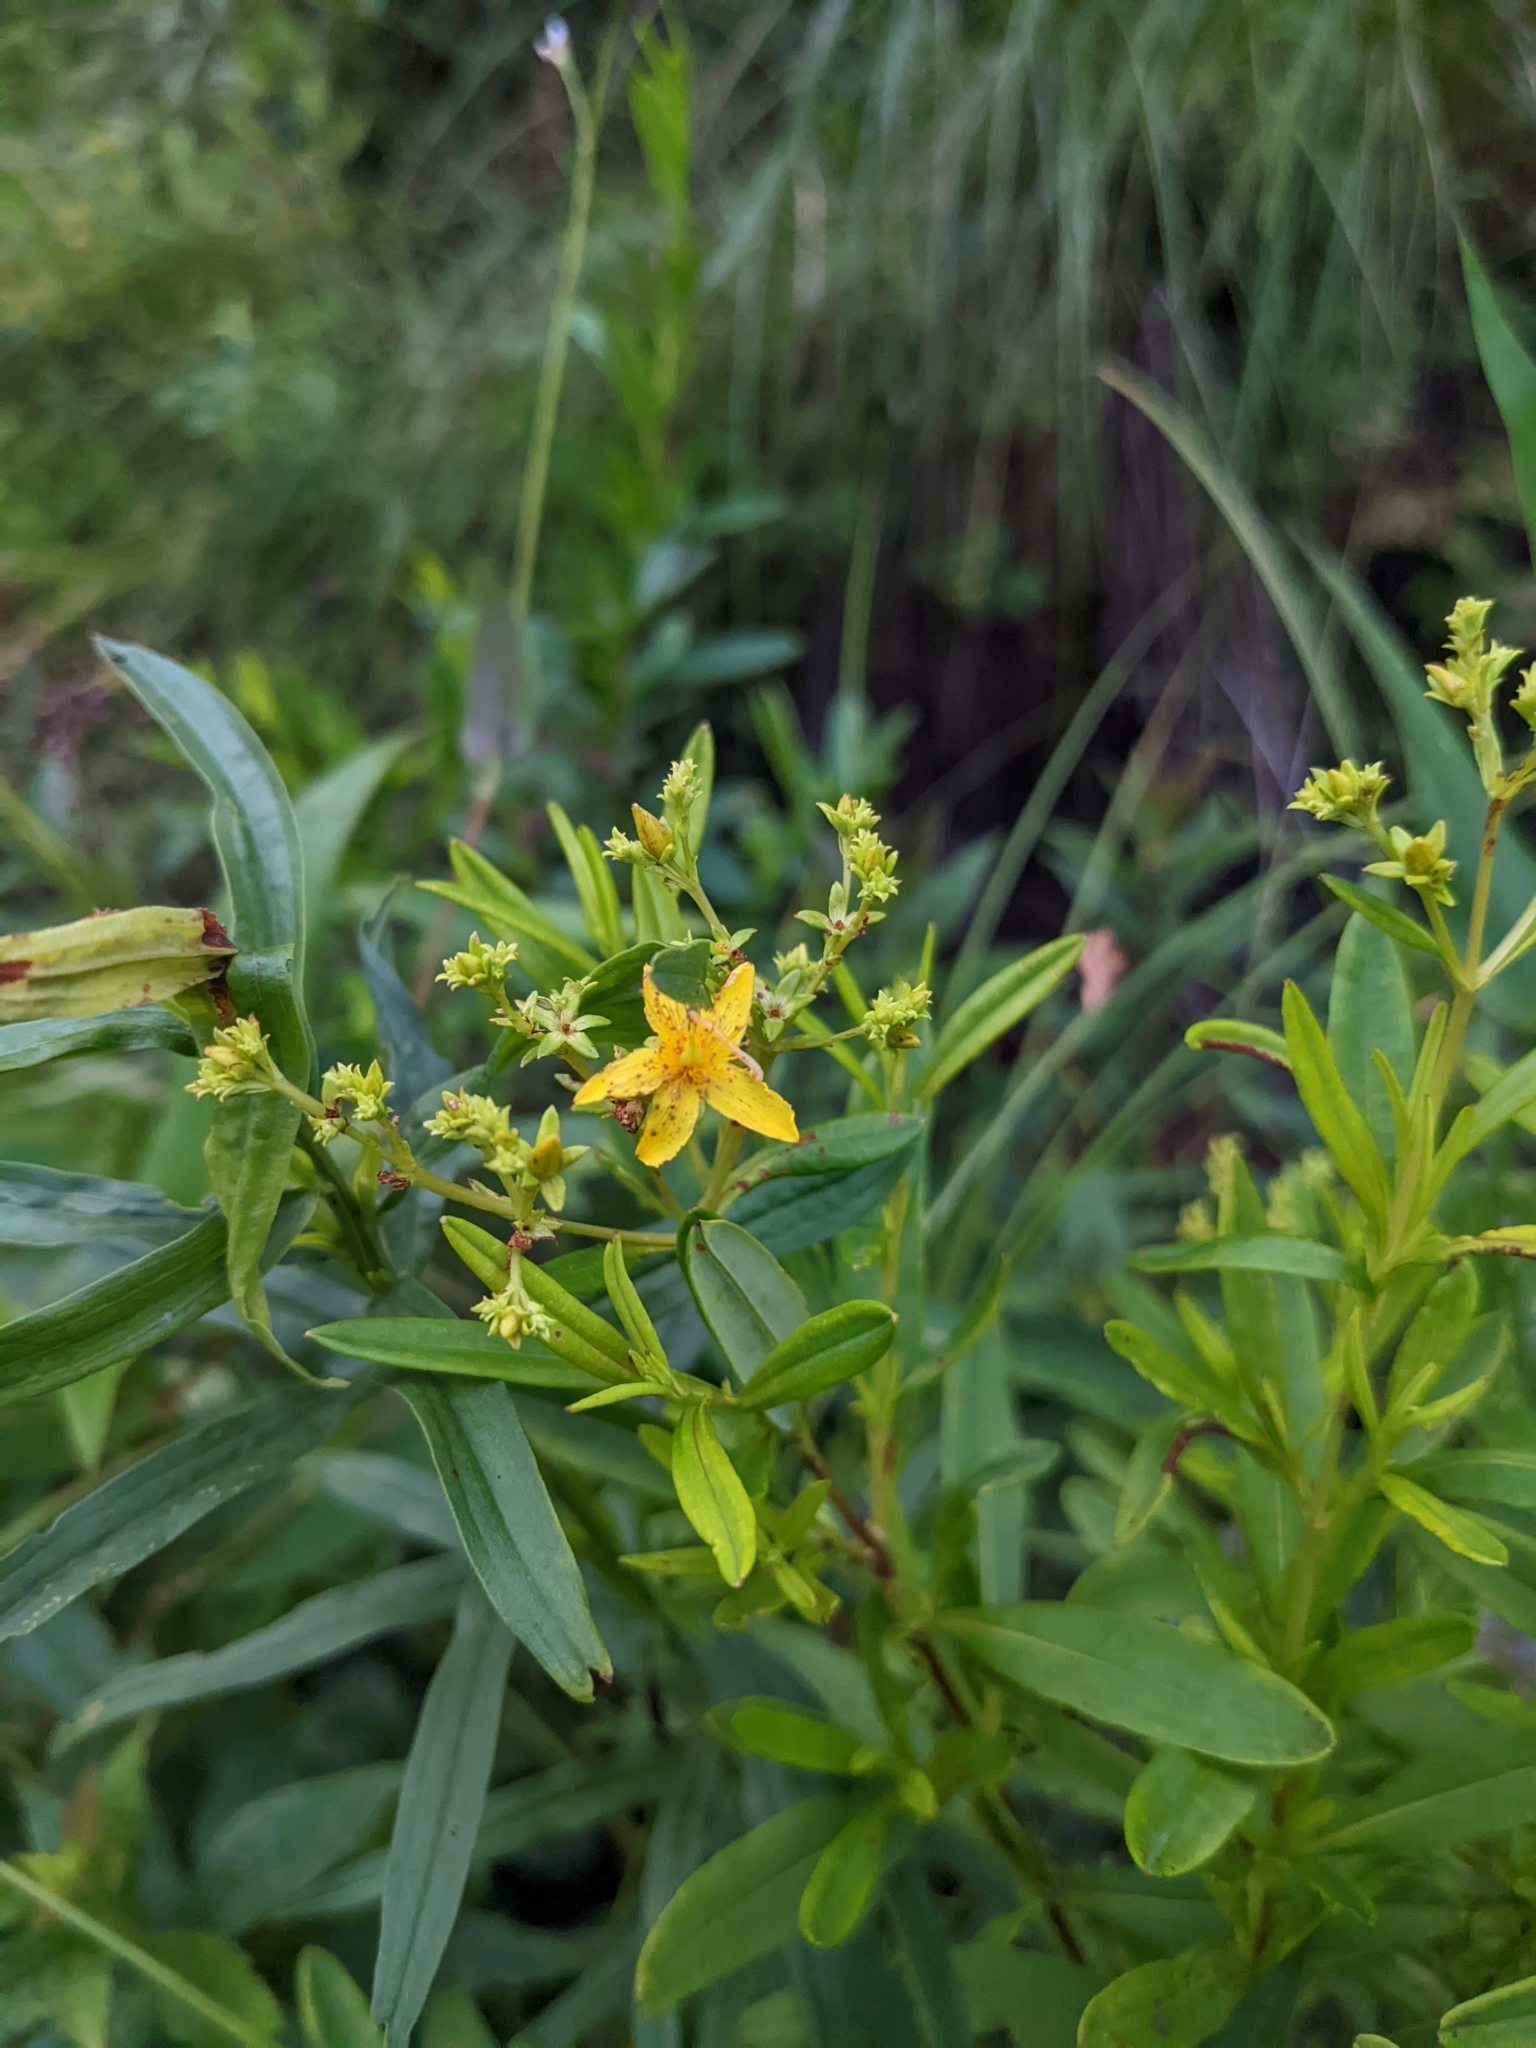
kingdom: Plantae
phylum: Tracheophyta
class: Magnoliopsida
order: Malpighiales
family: Hypericaceae
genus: Hypericum
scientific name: Hypericum densiflorum
